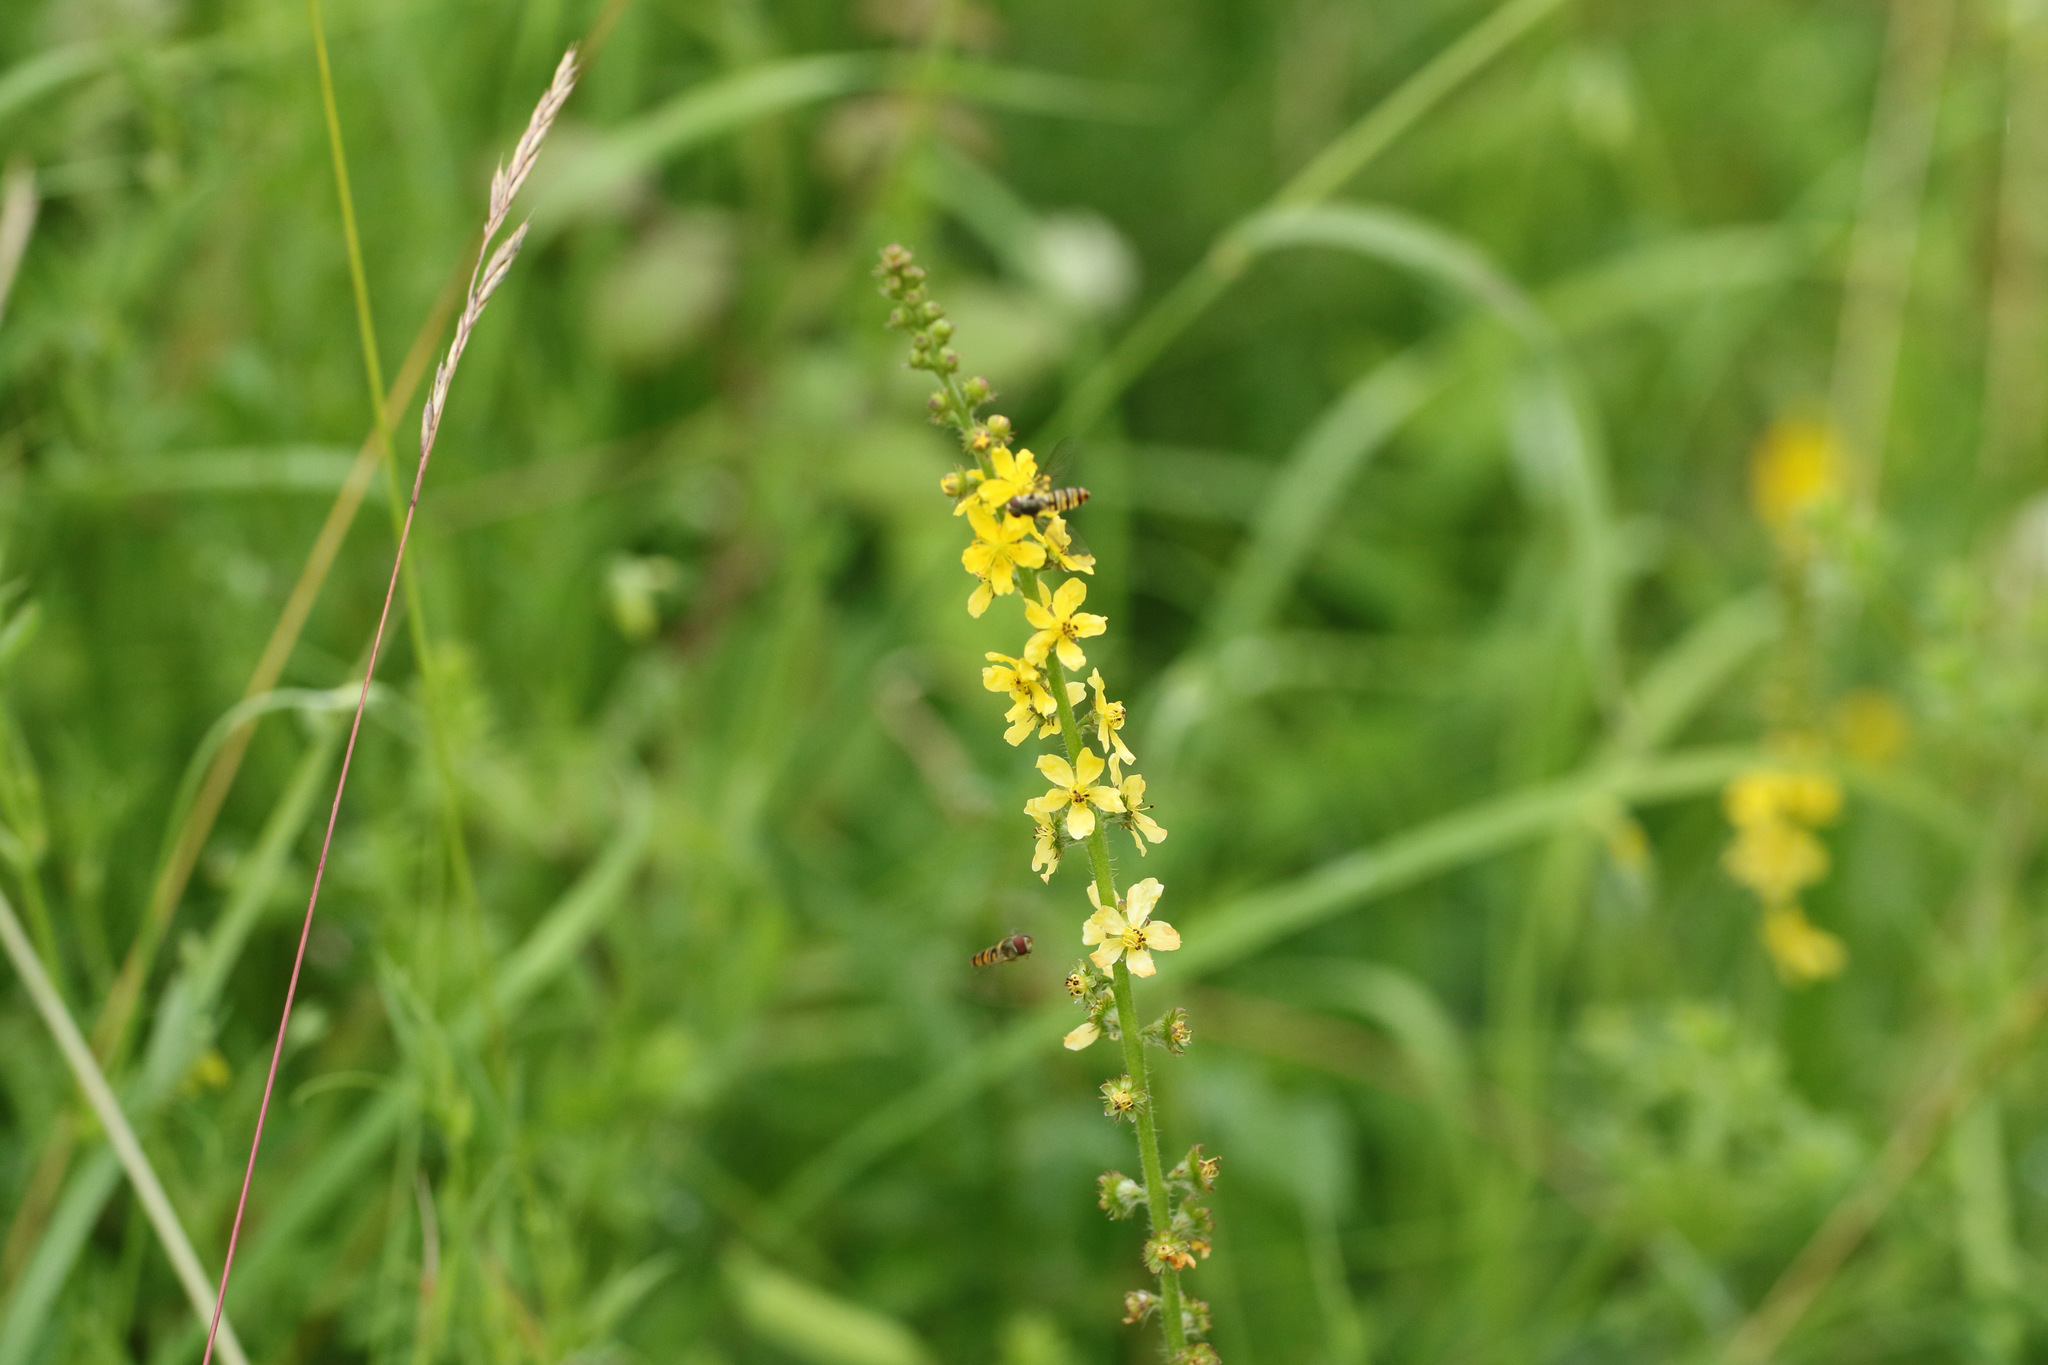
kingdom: Plantae
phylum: Tracheophyta
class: Magnoliopsida
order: Rosales
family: Rosaceae
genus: Agrimonia
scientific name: Agrimonia eupatoria
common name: Agrimony
